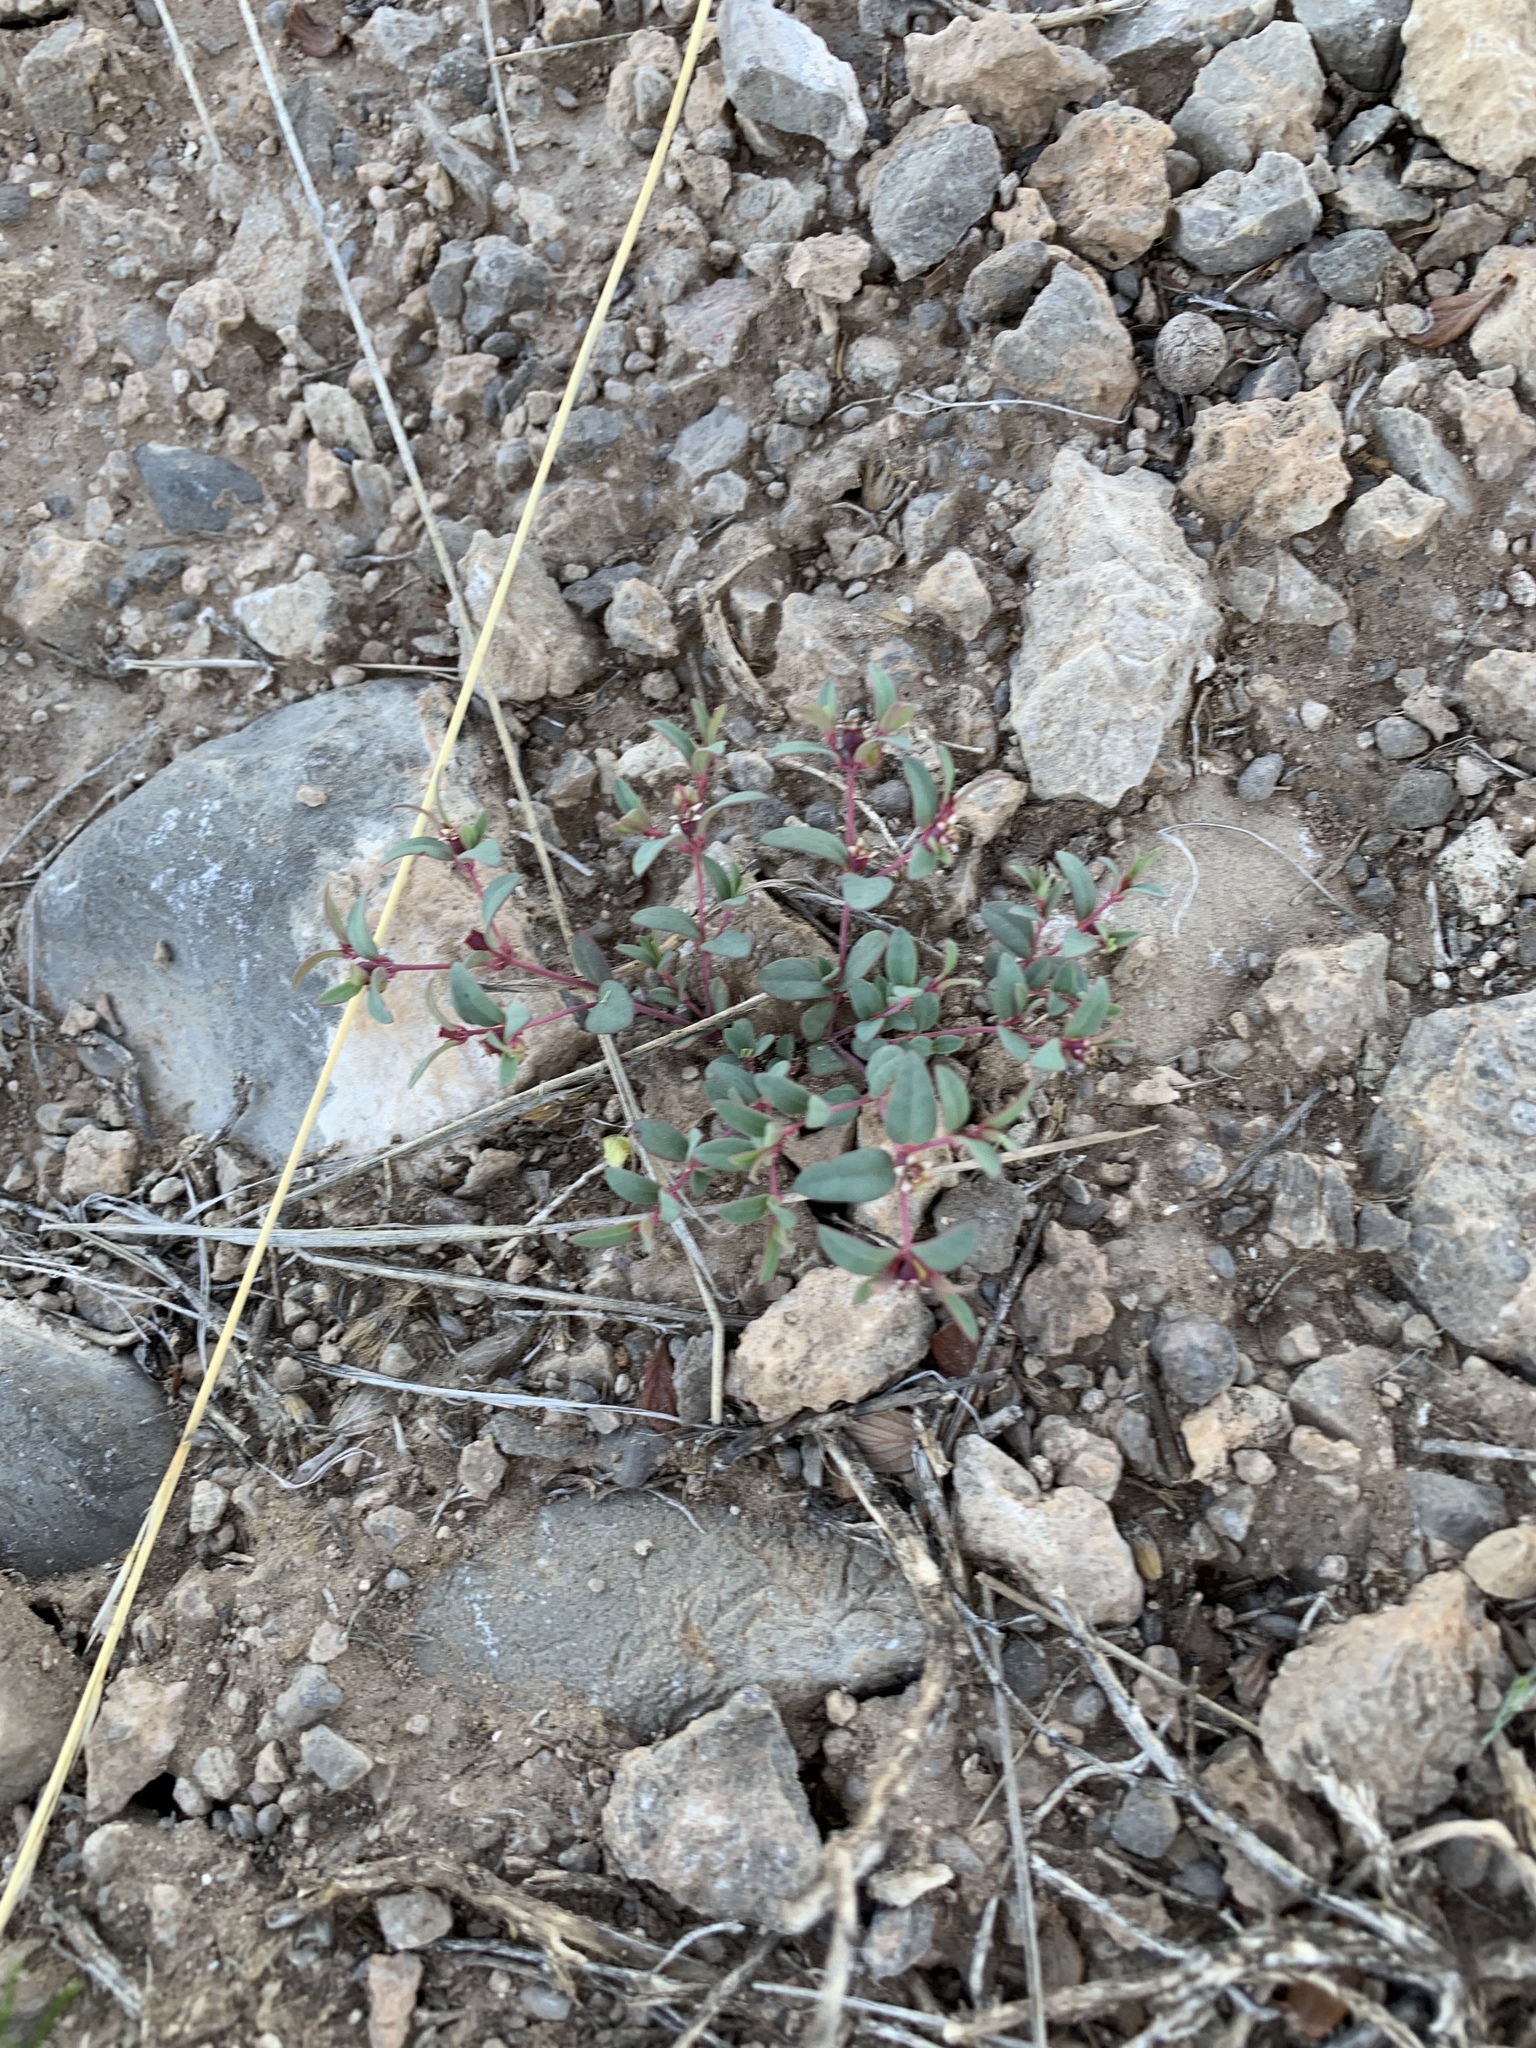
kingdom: Plantae
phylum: Tracheophyta
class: Magnoliopsida
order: Malpighiales
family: Euphorbiaceae
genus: Euphorbia
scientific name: Euphorbia chaetocalyx
